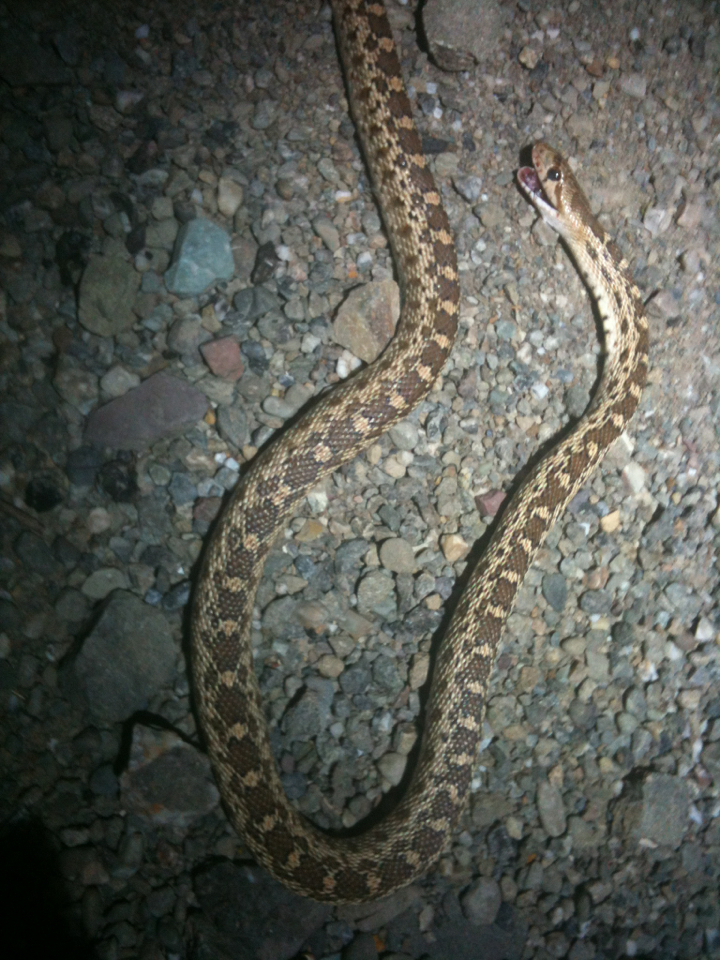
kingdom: Animalia
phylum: Chordata
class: Squamata
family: Colubridae
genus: Pituophis
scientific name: Pituophis catenifer
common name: Gopher snake
